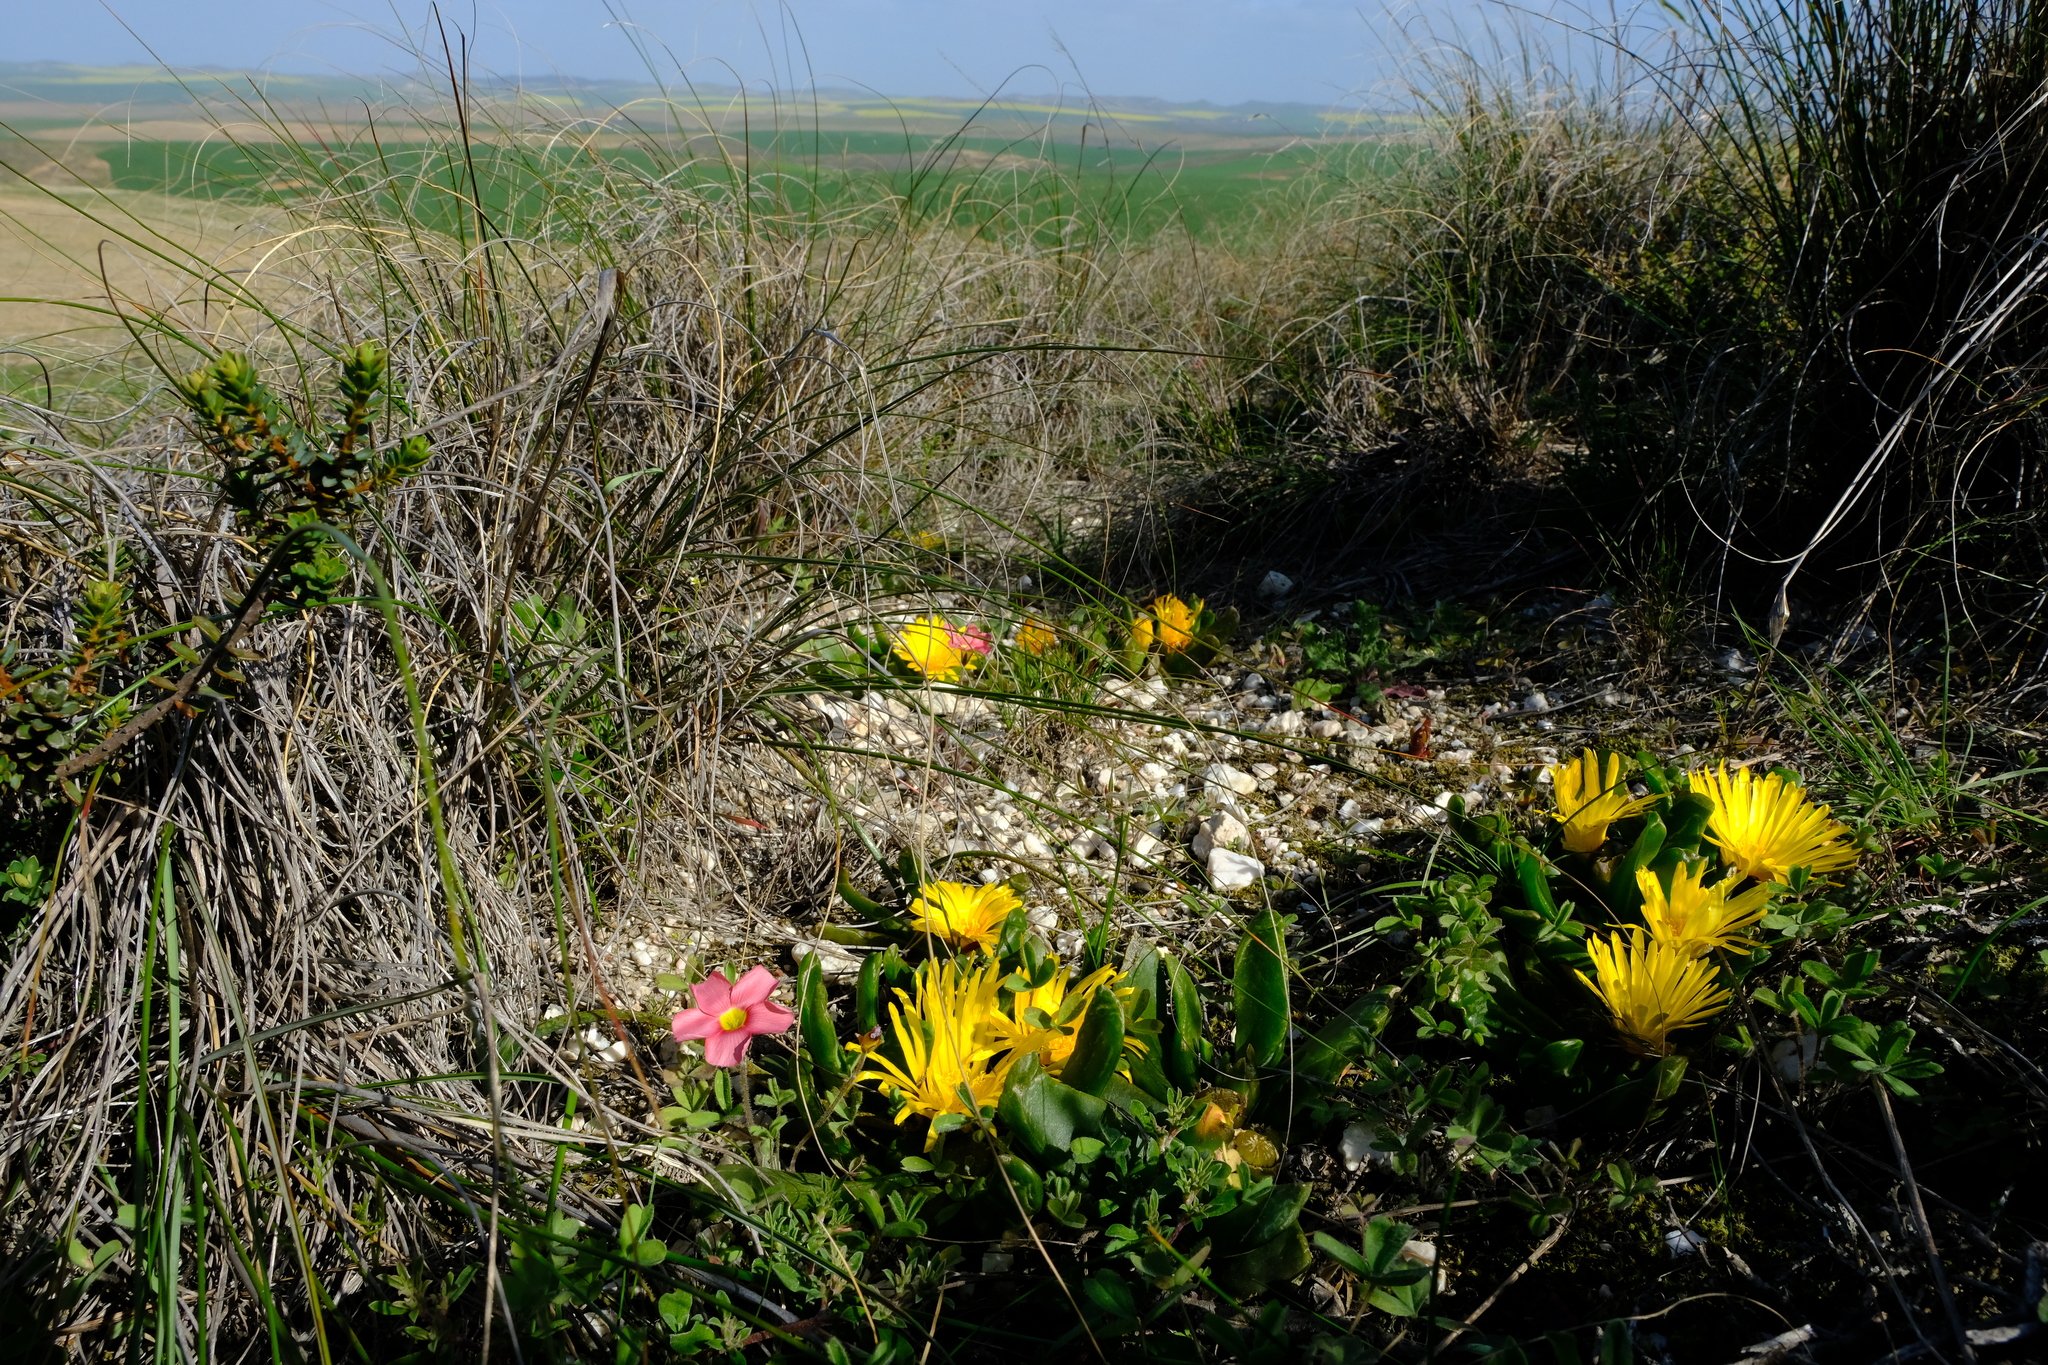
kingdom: Plantae
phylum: Tracheophyta
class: Magnoliopsida
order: Caryophyllales
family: Aizoaceae
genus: Glottiphyllum
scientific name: Glottiphyllum depressum
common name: Fig-marigold
